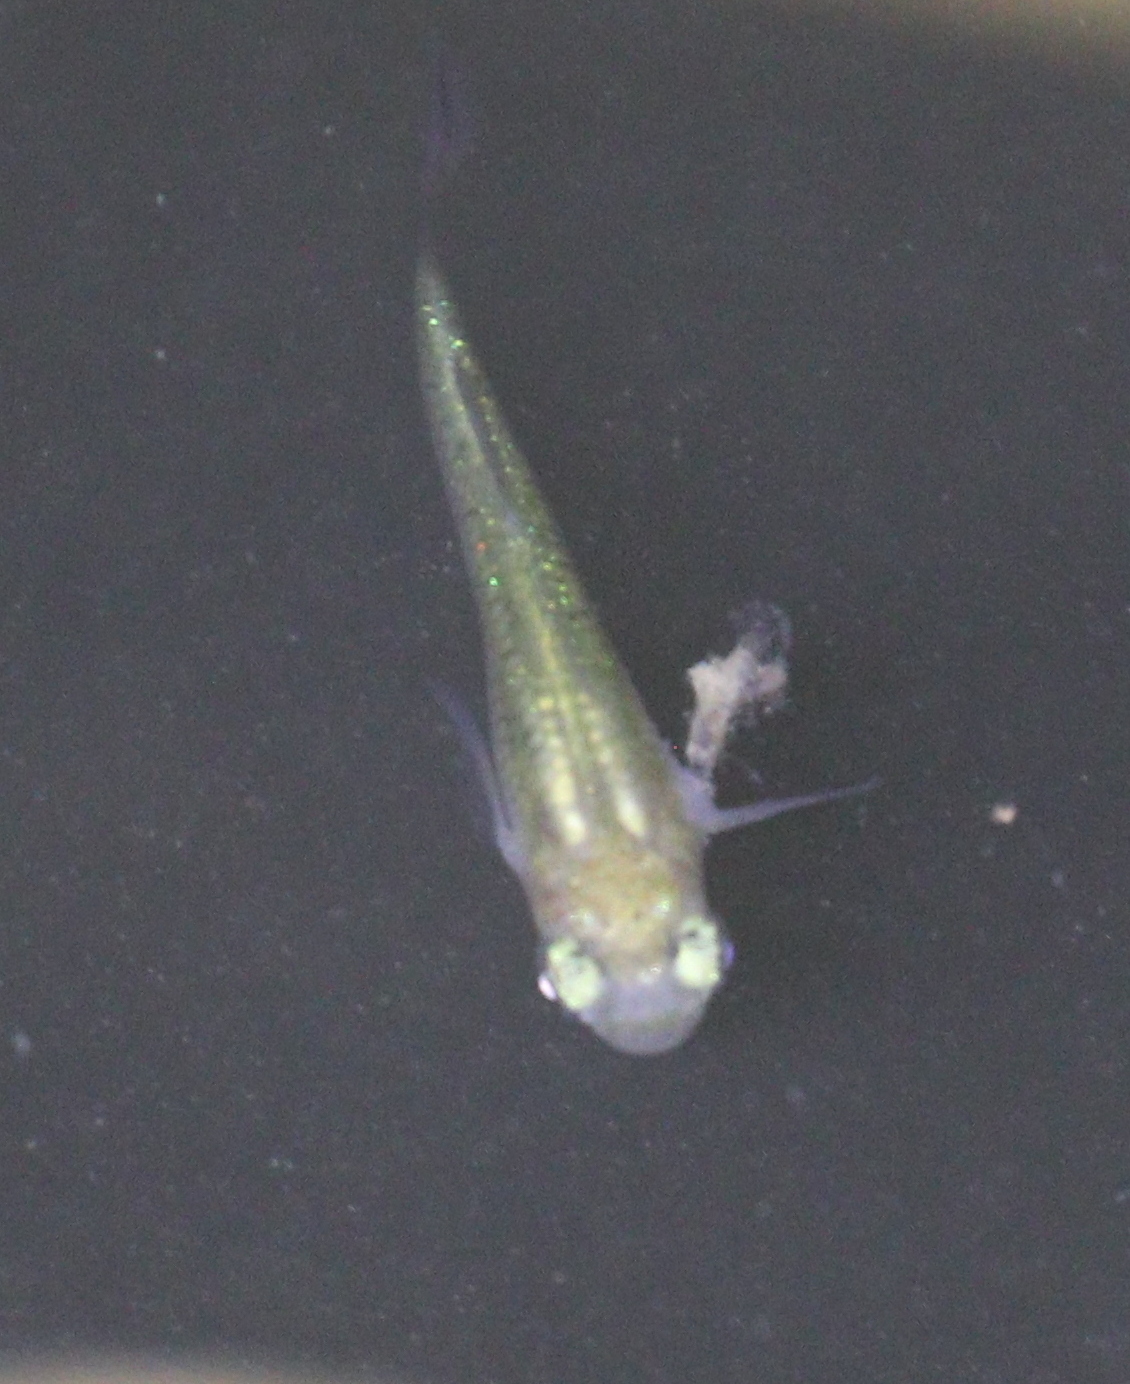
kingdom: Animalia
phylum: Chordata
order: Cyprinodontiformes
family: Poeciliidae
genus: Gambusia
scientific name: Gambusia holbrooki
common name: Eastern mosquitofish
